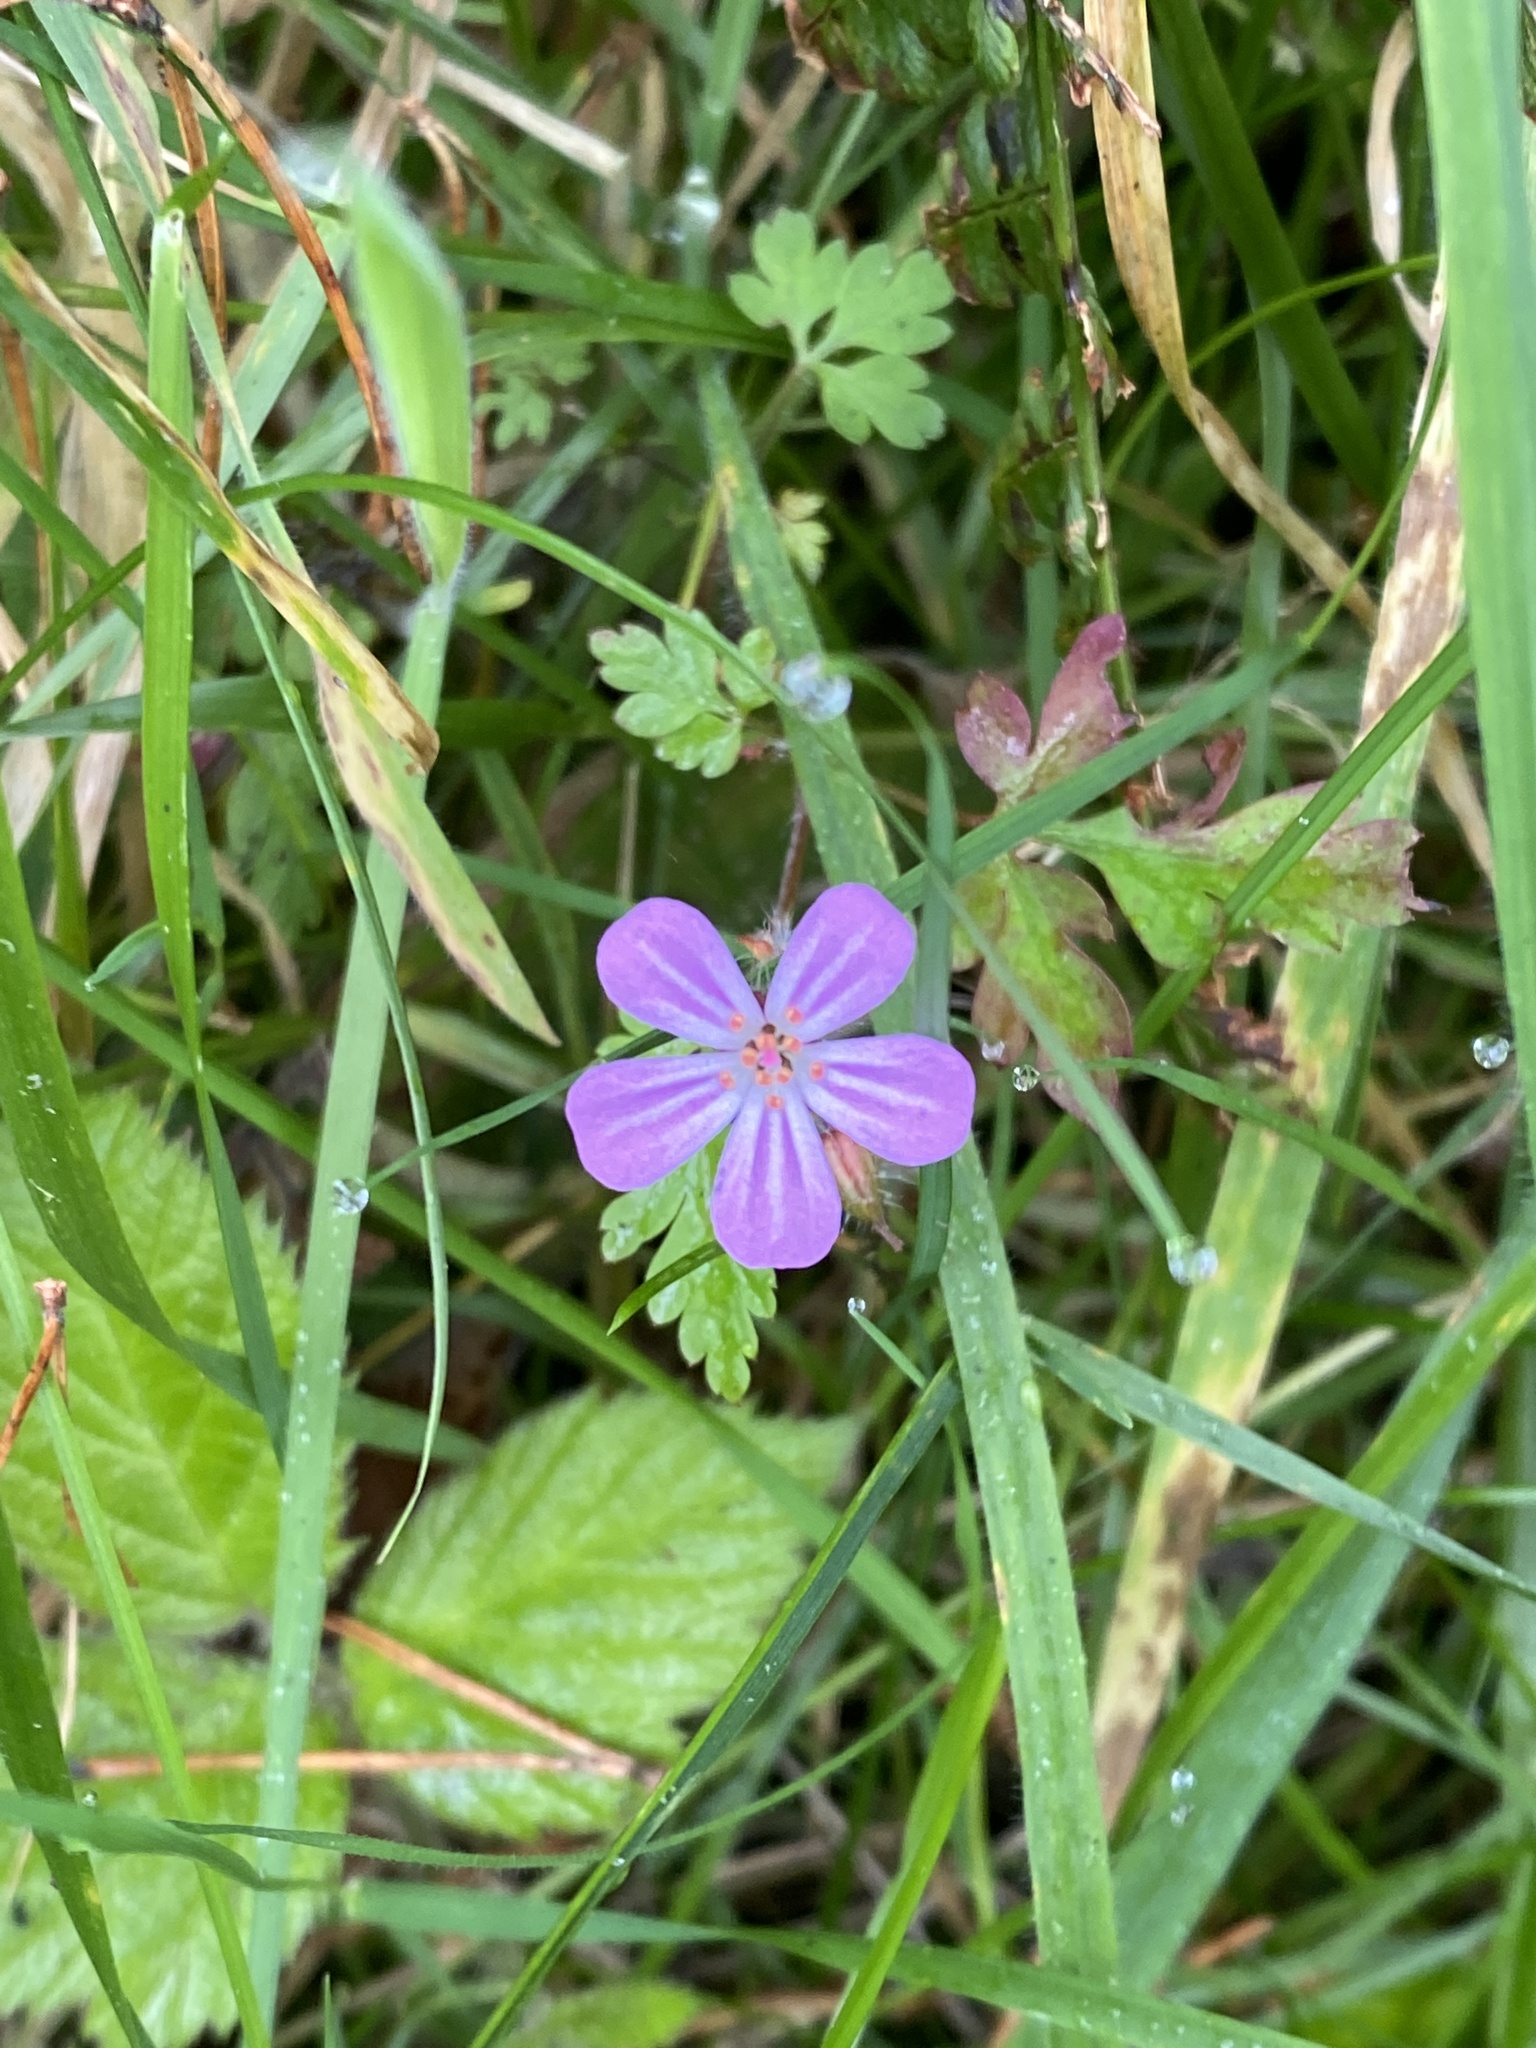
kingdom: Plantae
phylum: Tracheophyta
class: Magnoliopsida
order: Geraniales
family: Geraniaceae
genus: Geranium
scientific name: Geranium robertianum
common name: Herb-robert
